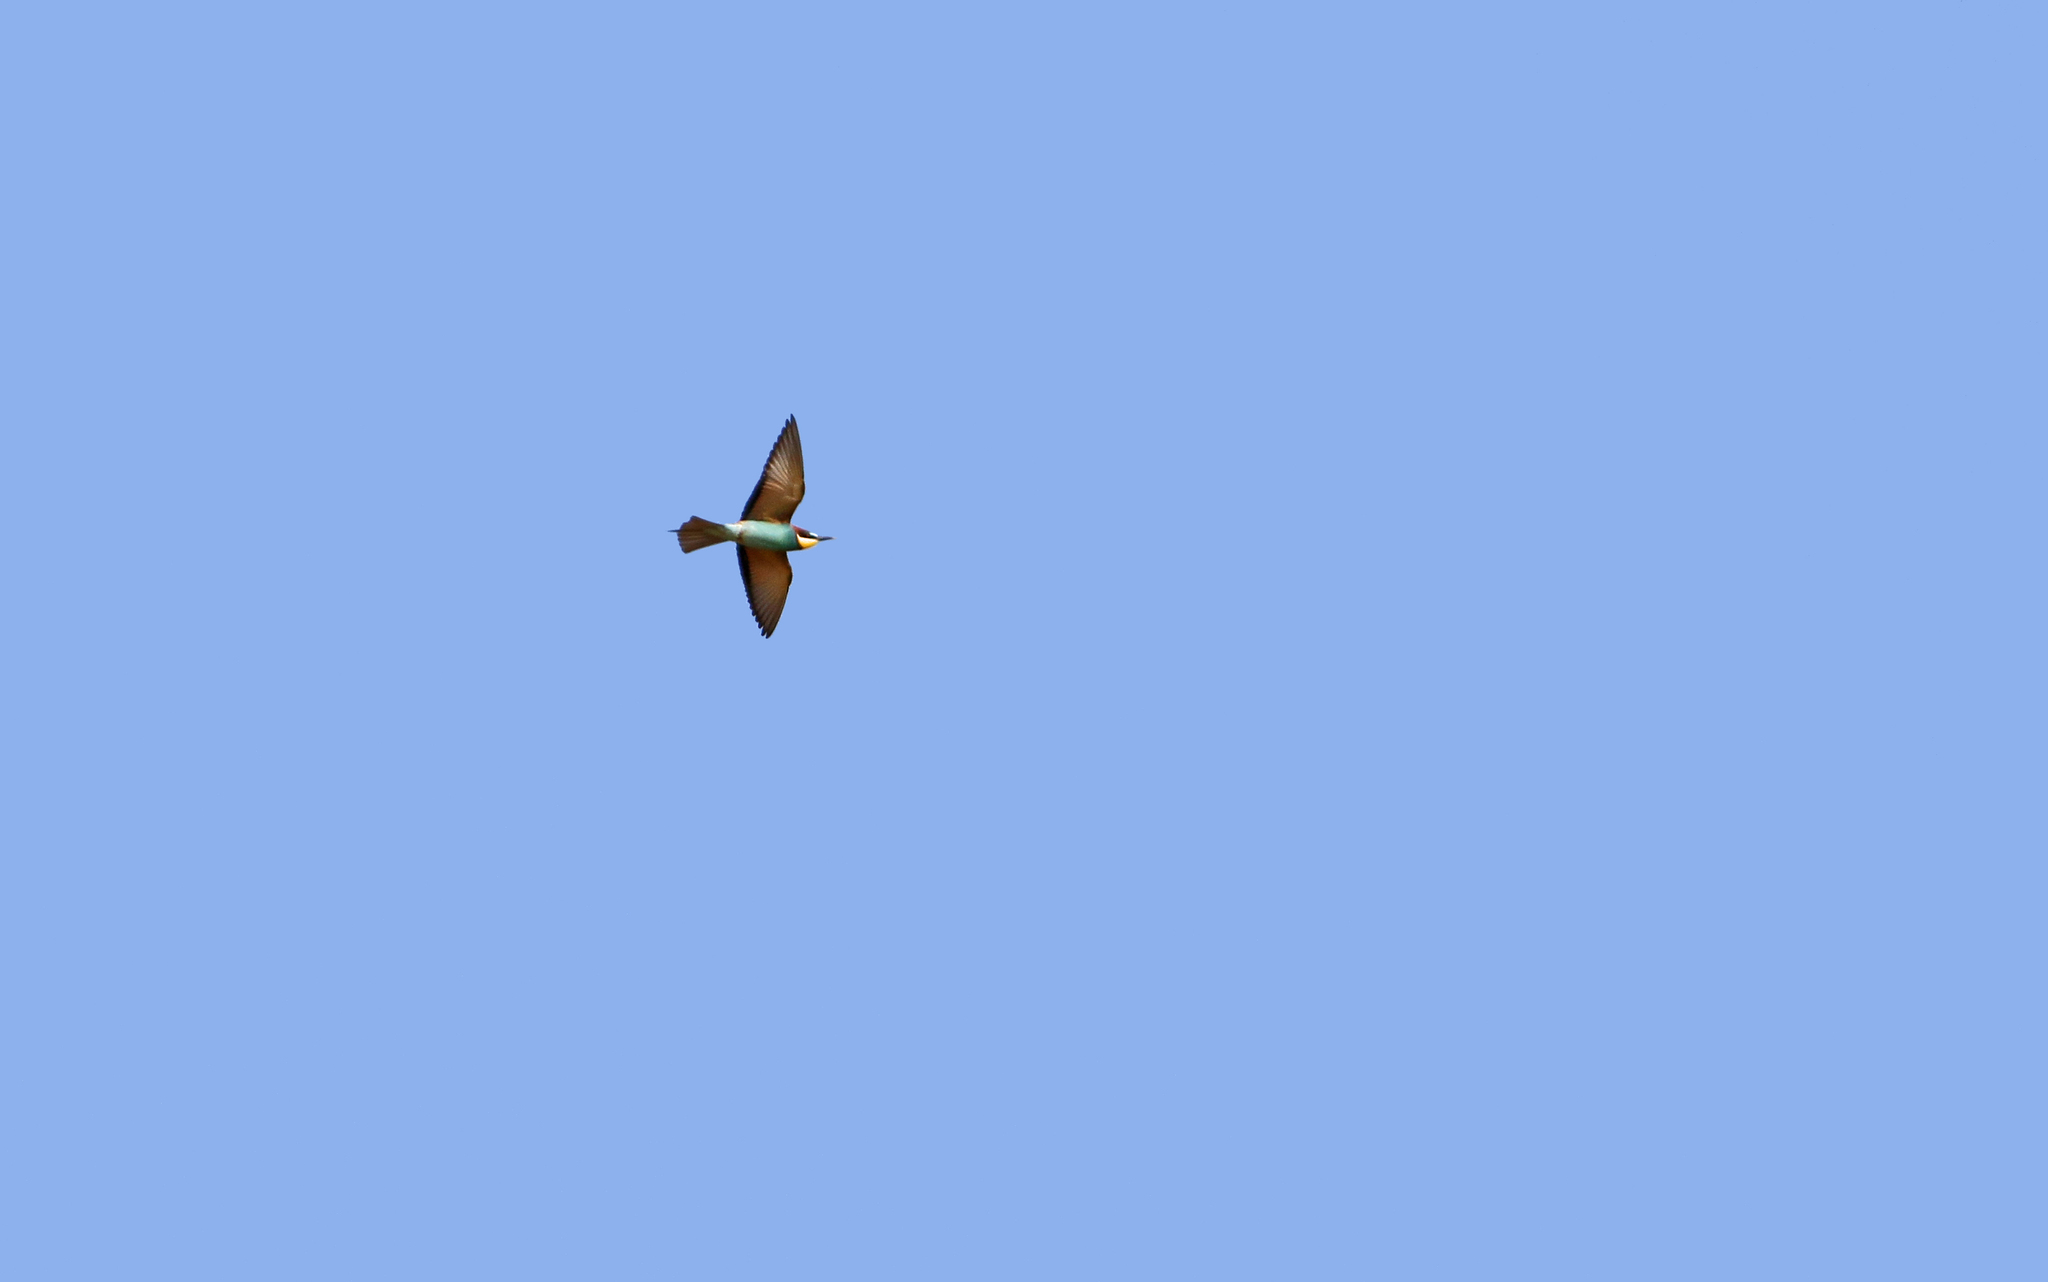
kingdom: Animalia
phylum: Chordata
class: Aves
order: Coraciiformes
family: Meropidae
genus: Merops
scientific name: Merops apiaster
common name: European bee-eater
